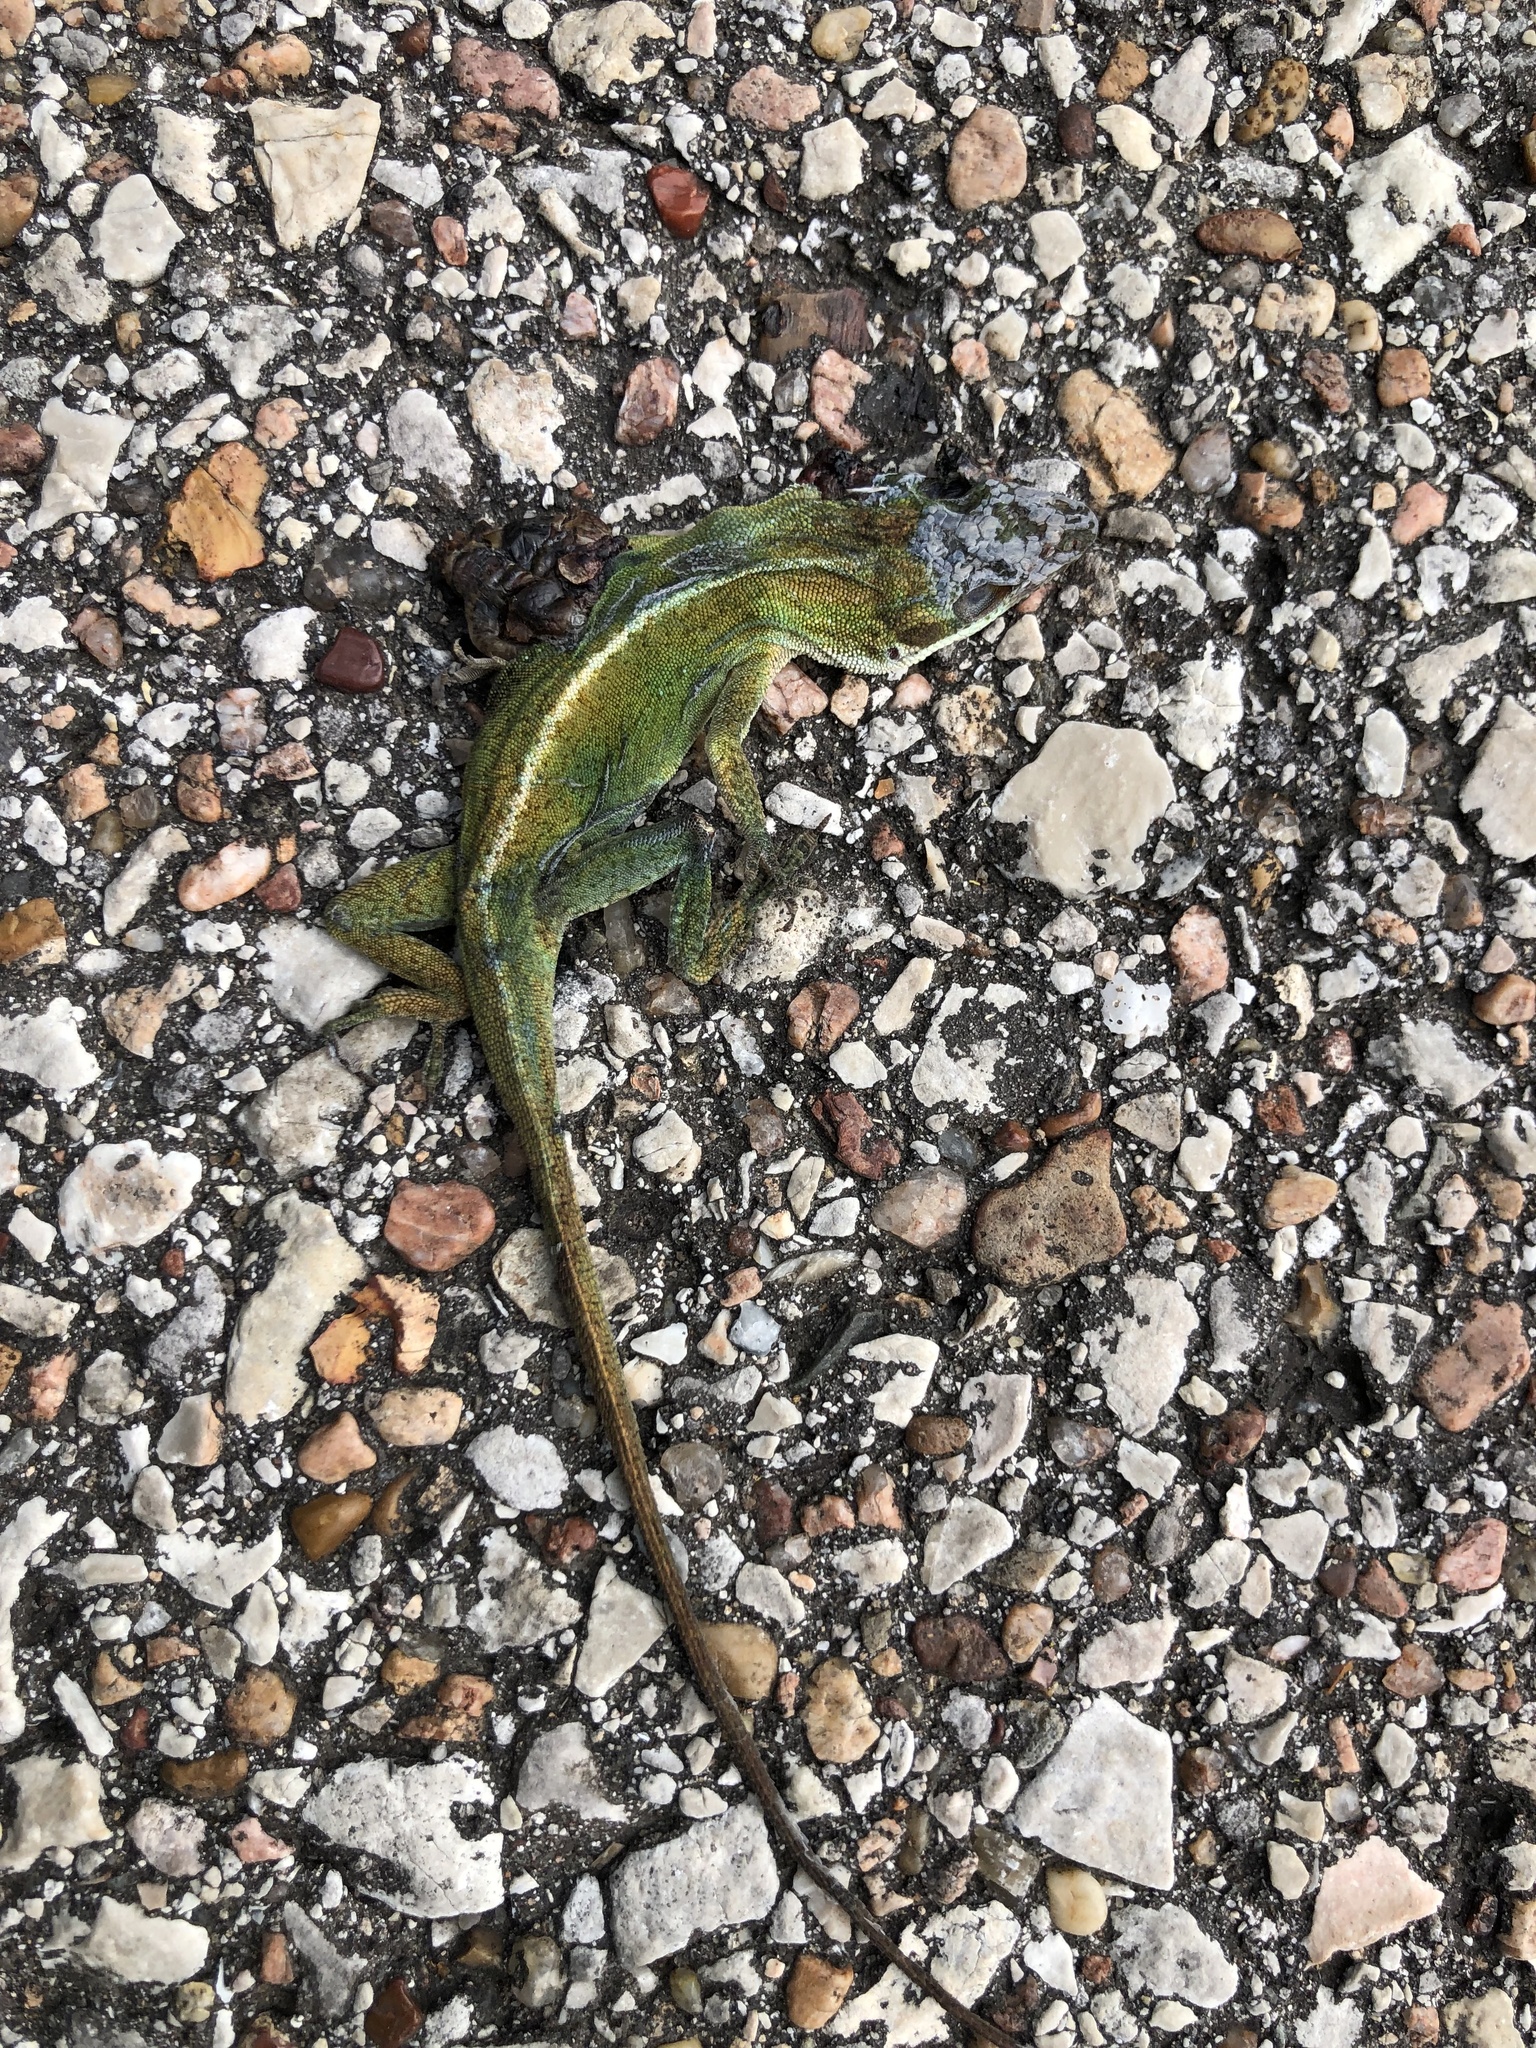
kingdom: Animalia
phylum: Chordata
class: Squamata
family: Dactyloidae
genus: Anolis
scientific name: Anolis carolinensis
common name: Green anole
